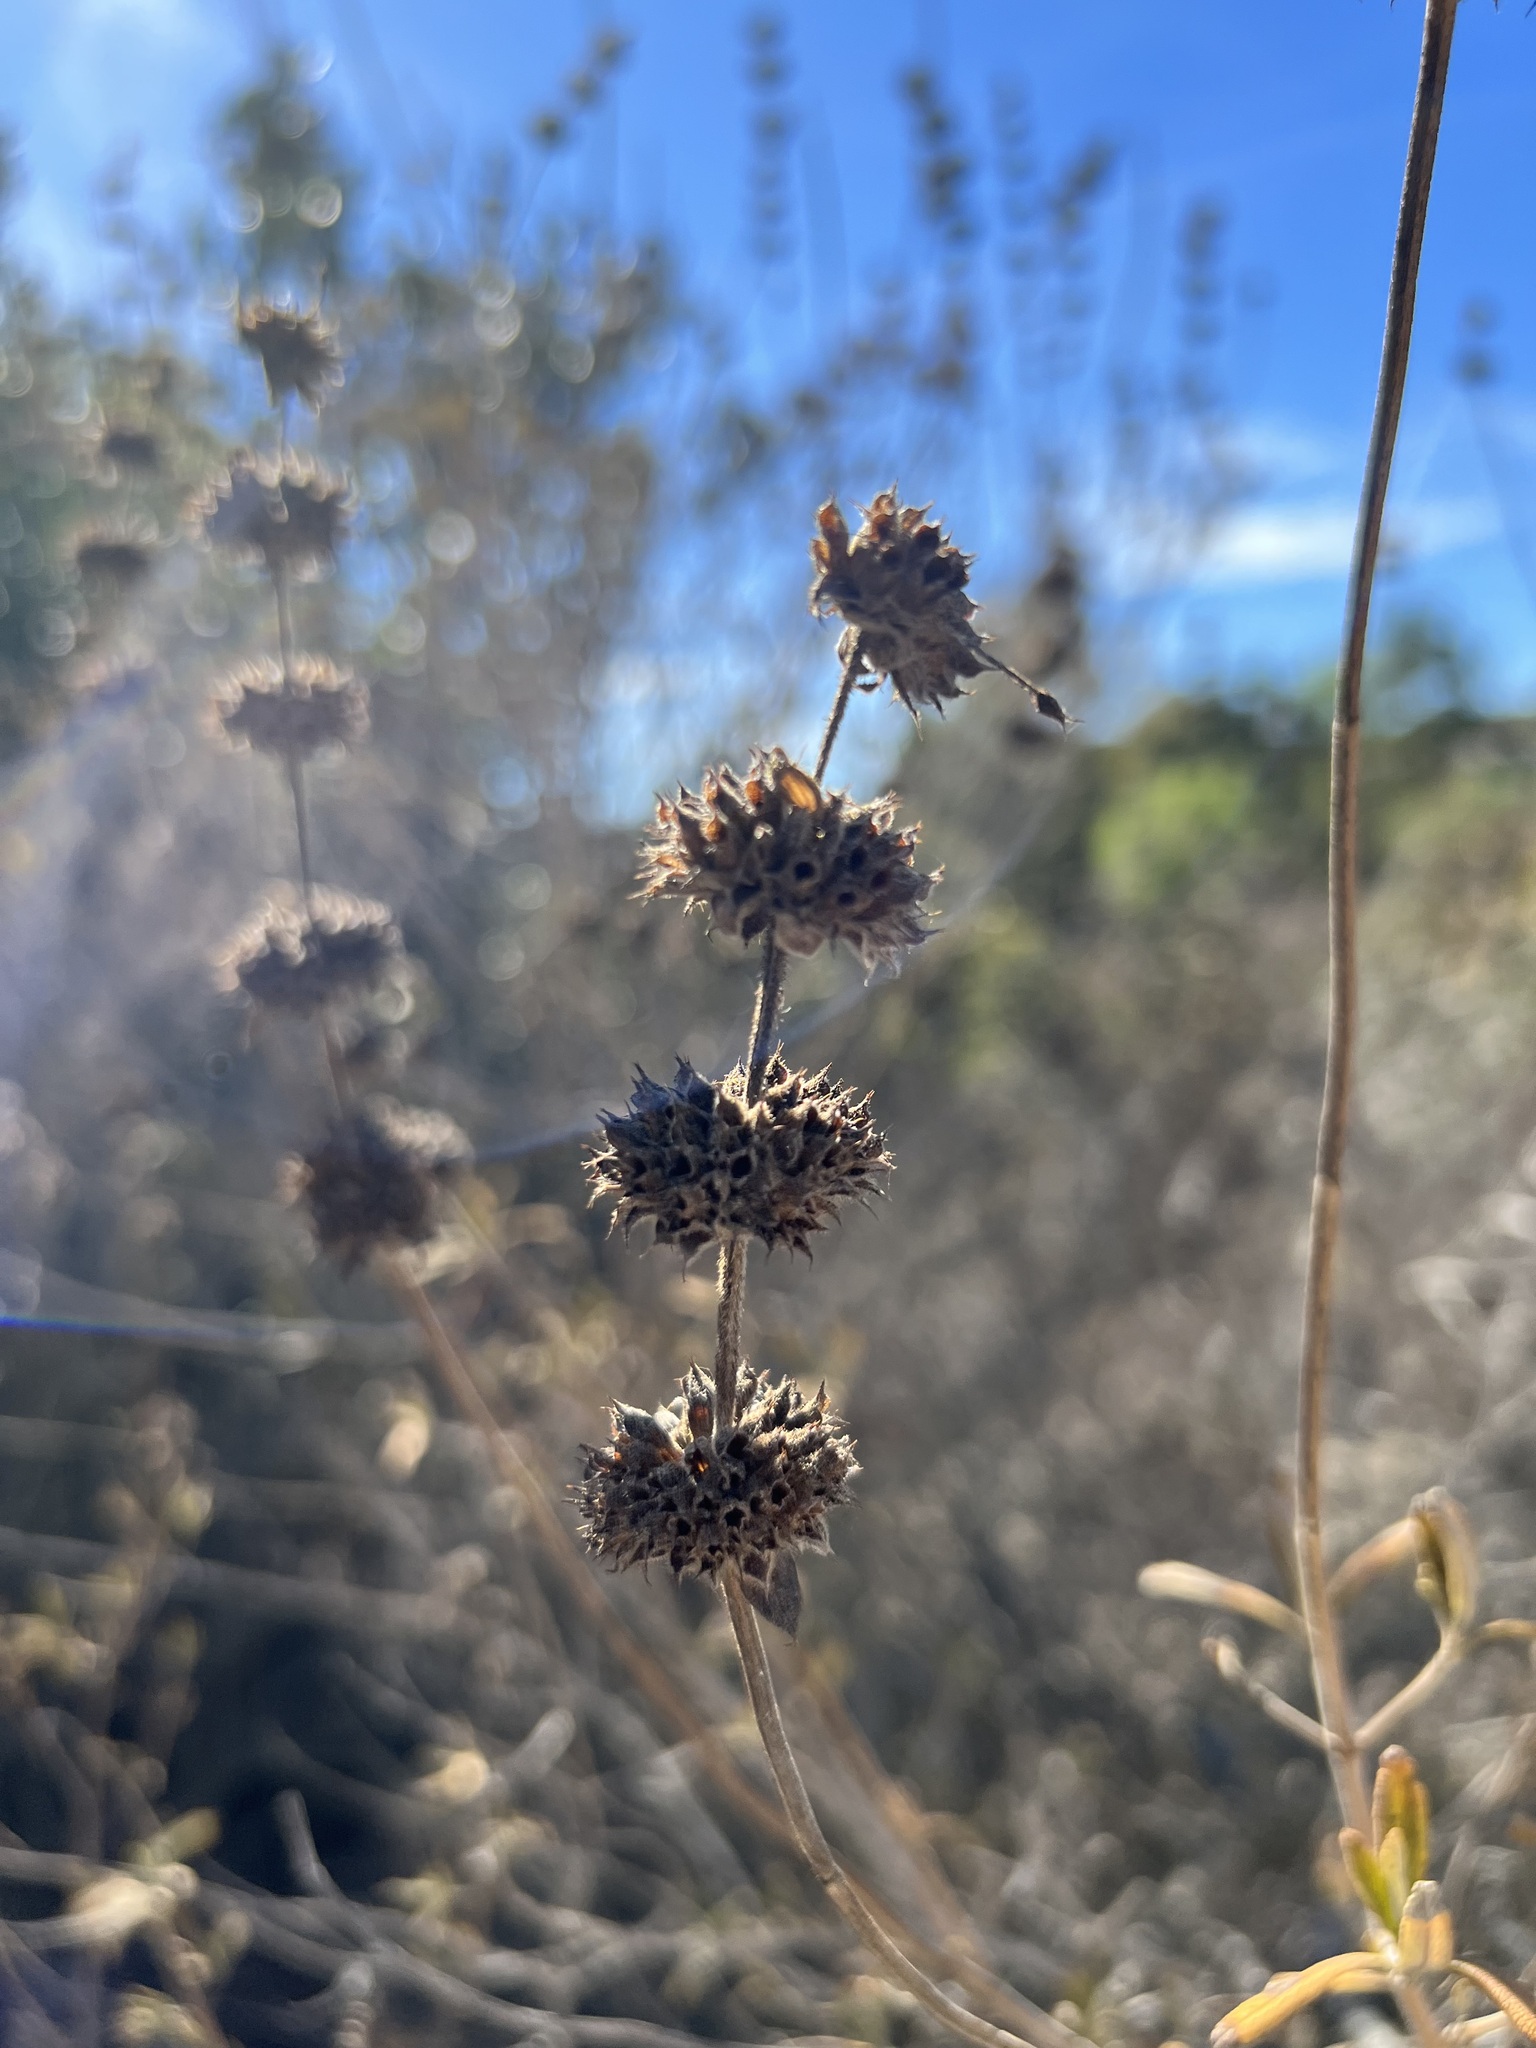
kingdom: Plantae
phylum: Tracheophyta
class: Magnoliopsida
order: Lamiales
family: Lamiaceae
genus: Salvia
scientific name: Salvia mellifera
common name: Black sage
